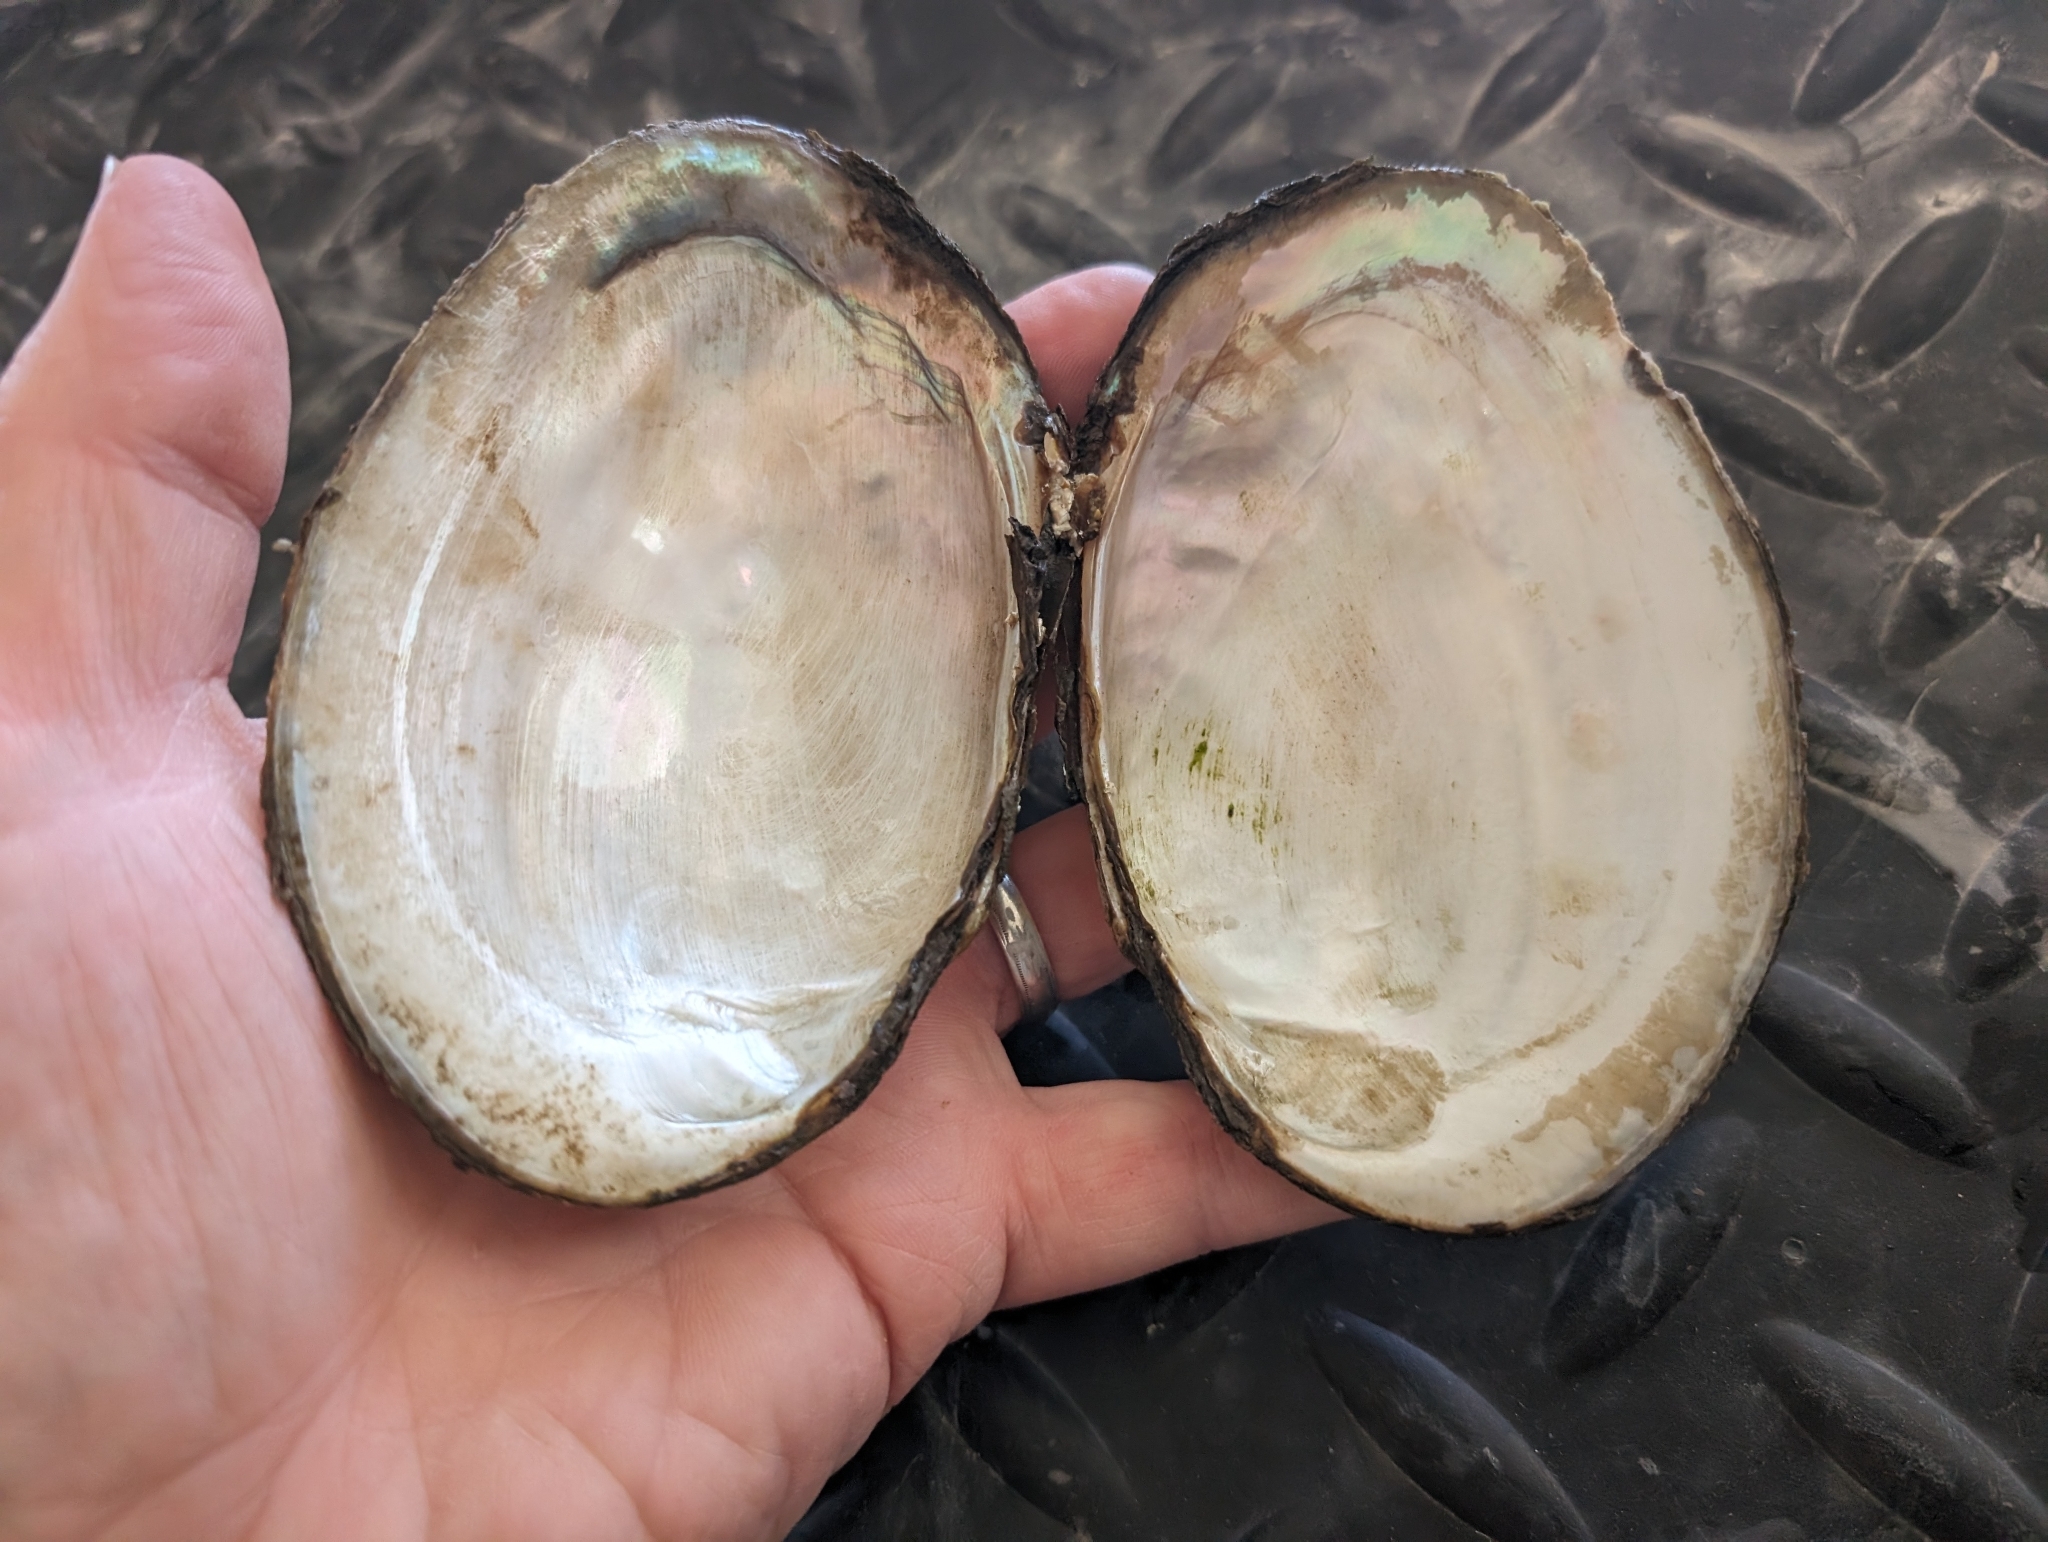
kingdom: Animalia
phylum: Mollusca
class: Bivalvia
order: Unionida
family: Unionidae
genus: Potamilus
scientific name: Potamilus fragilis
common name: Fragile papershell
